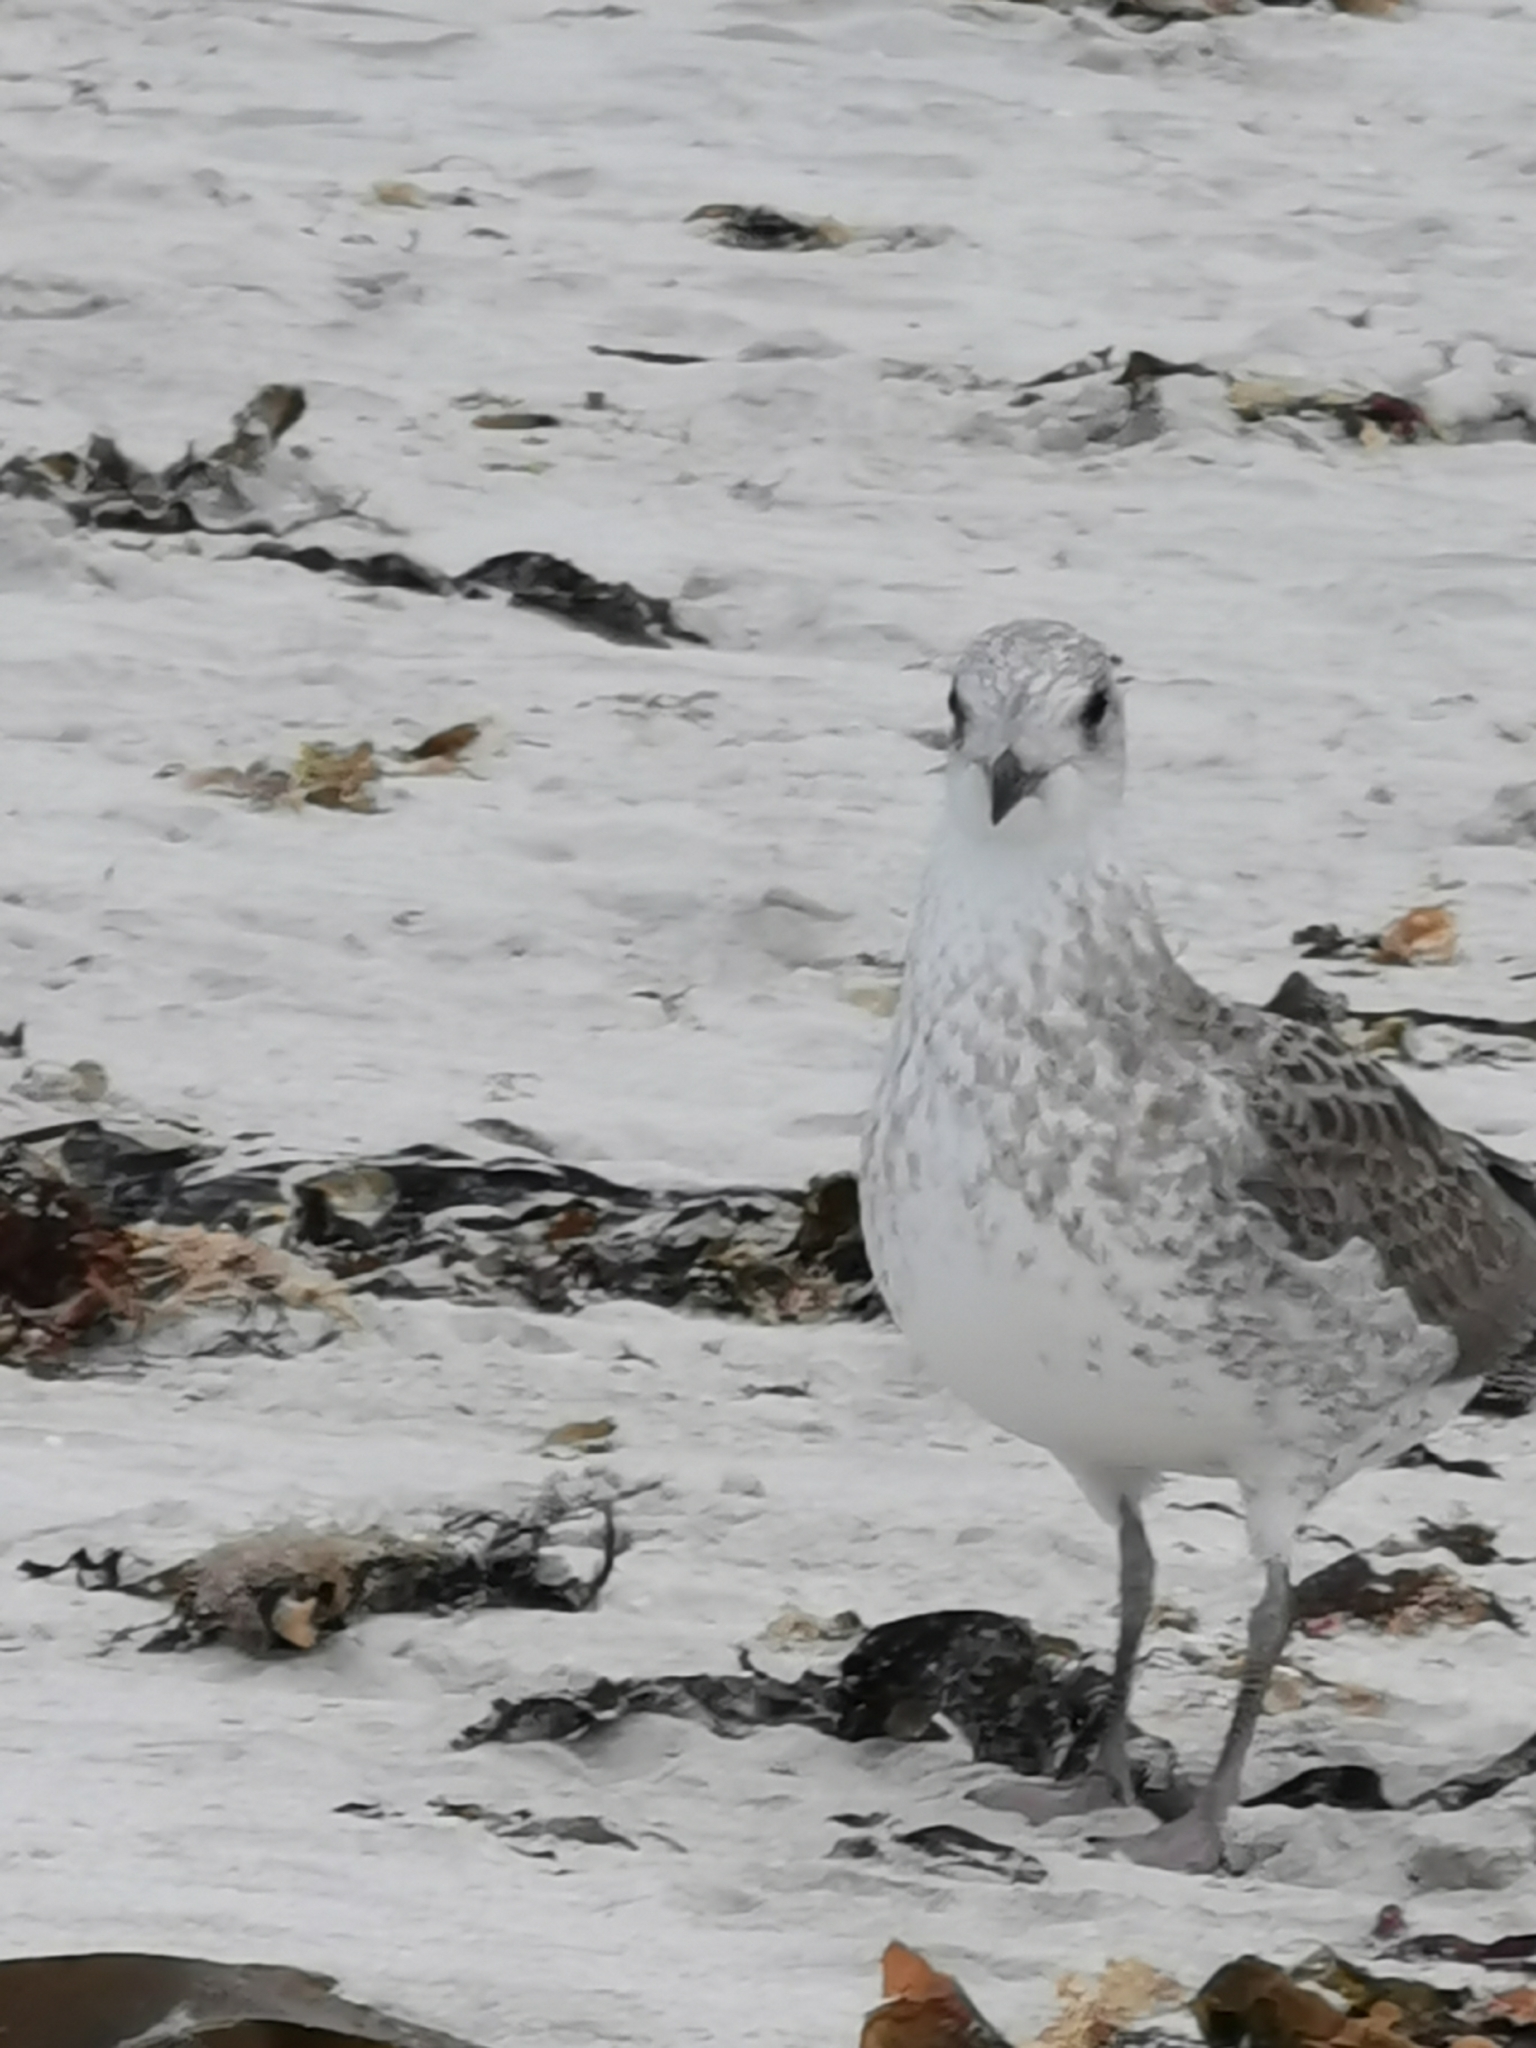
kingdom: Animalia
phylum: Chordata
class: Aves
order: Charadriiformes
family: Laridae
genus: Larus
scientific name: Larus canus
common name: Mew gull
